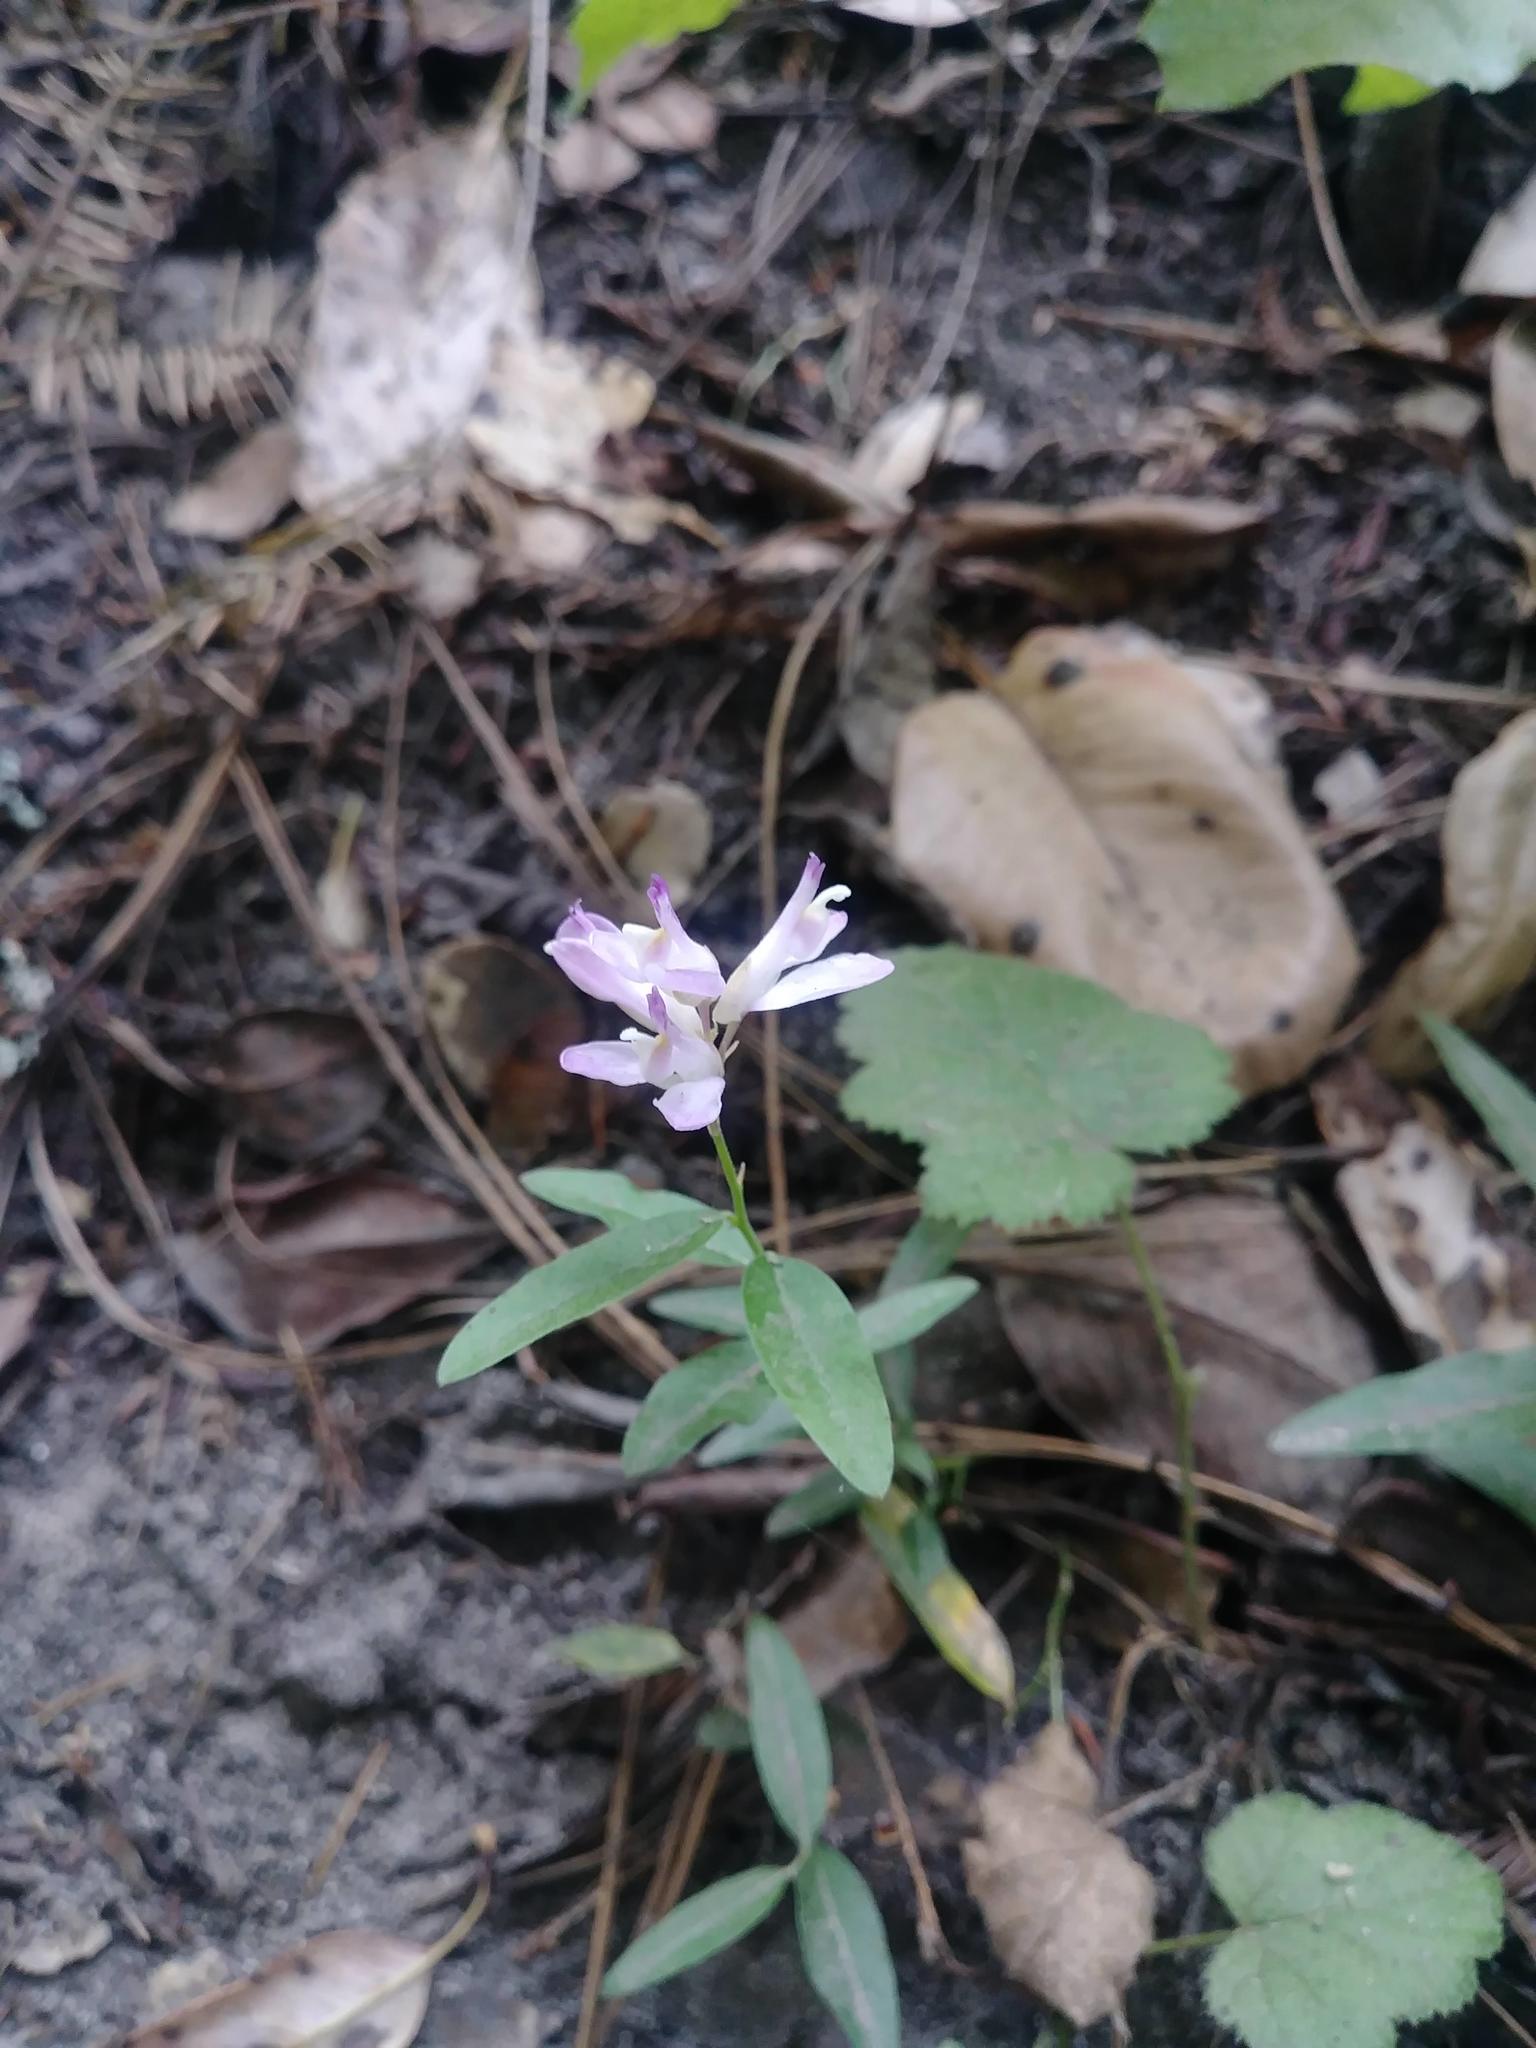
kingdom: Plantae
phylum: Tracheophyta
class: Magnoliopsida
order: Fabales
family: Polygalaceae
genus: Rhinotropis
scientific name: Rhinotropis californica
